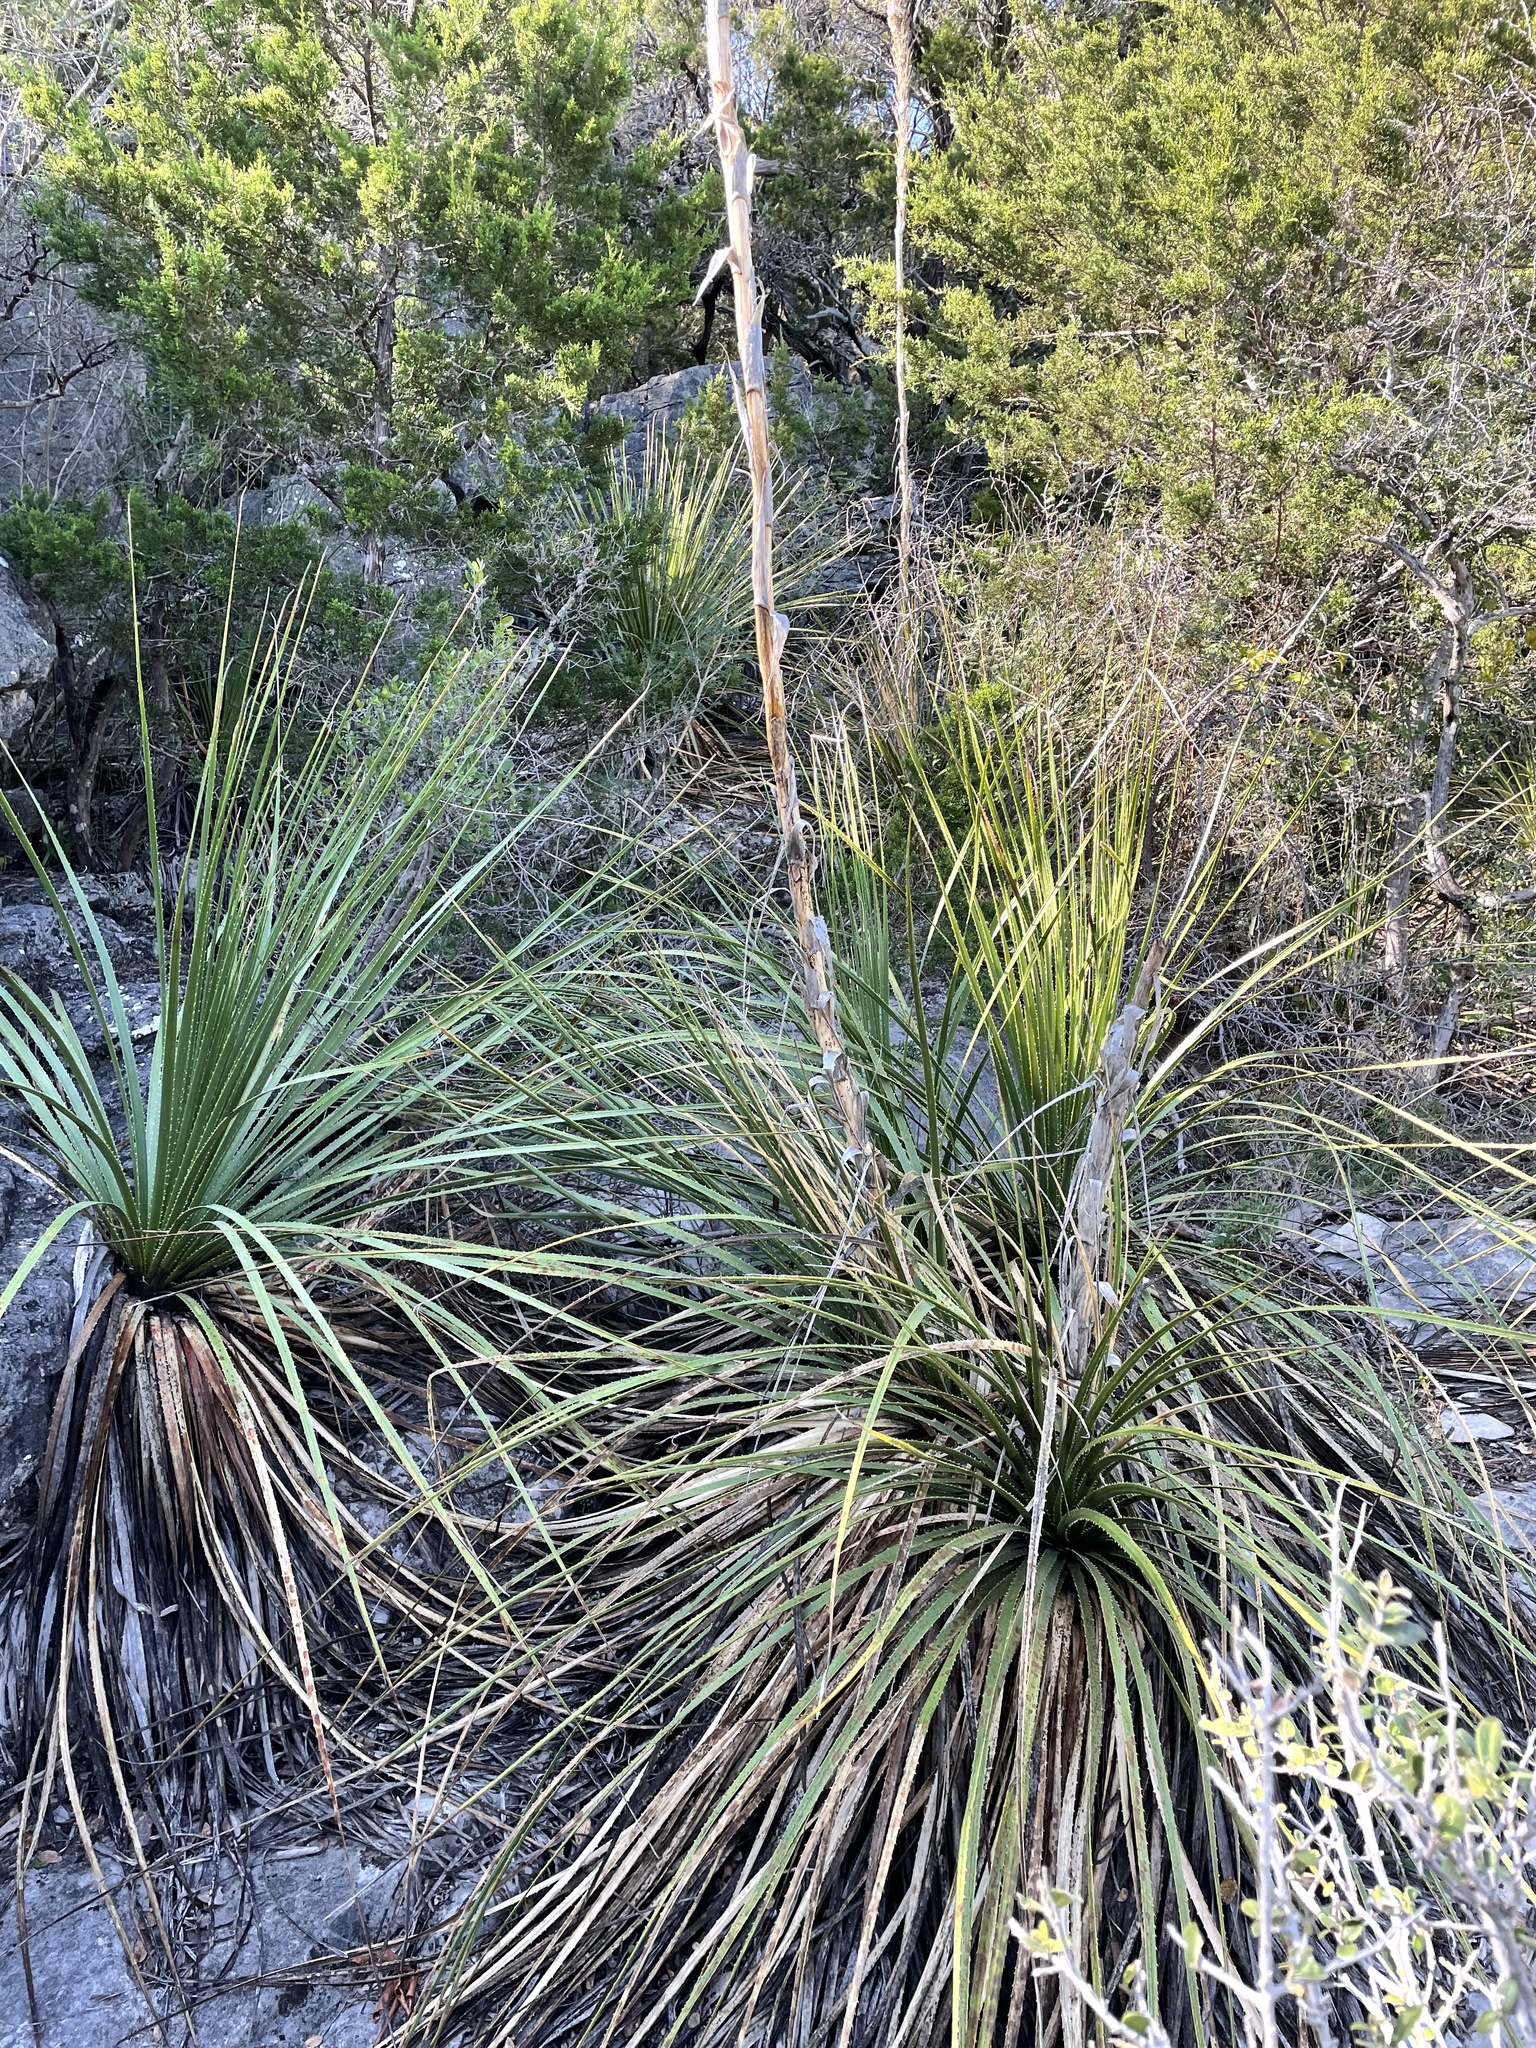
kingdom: Plantae
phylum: Tracheophyta
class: Liliopsida
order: Asparagales
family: Asparagaceae
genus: Dasylirion
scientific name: Dasylirion texanum
